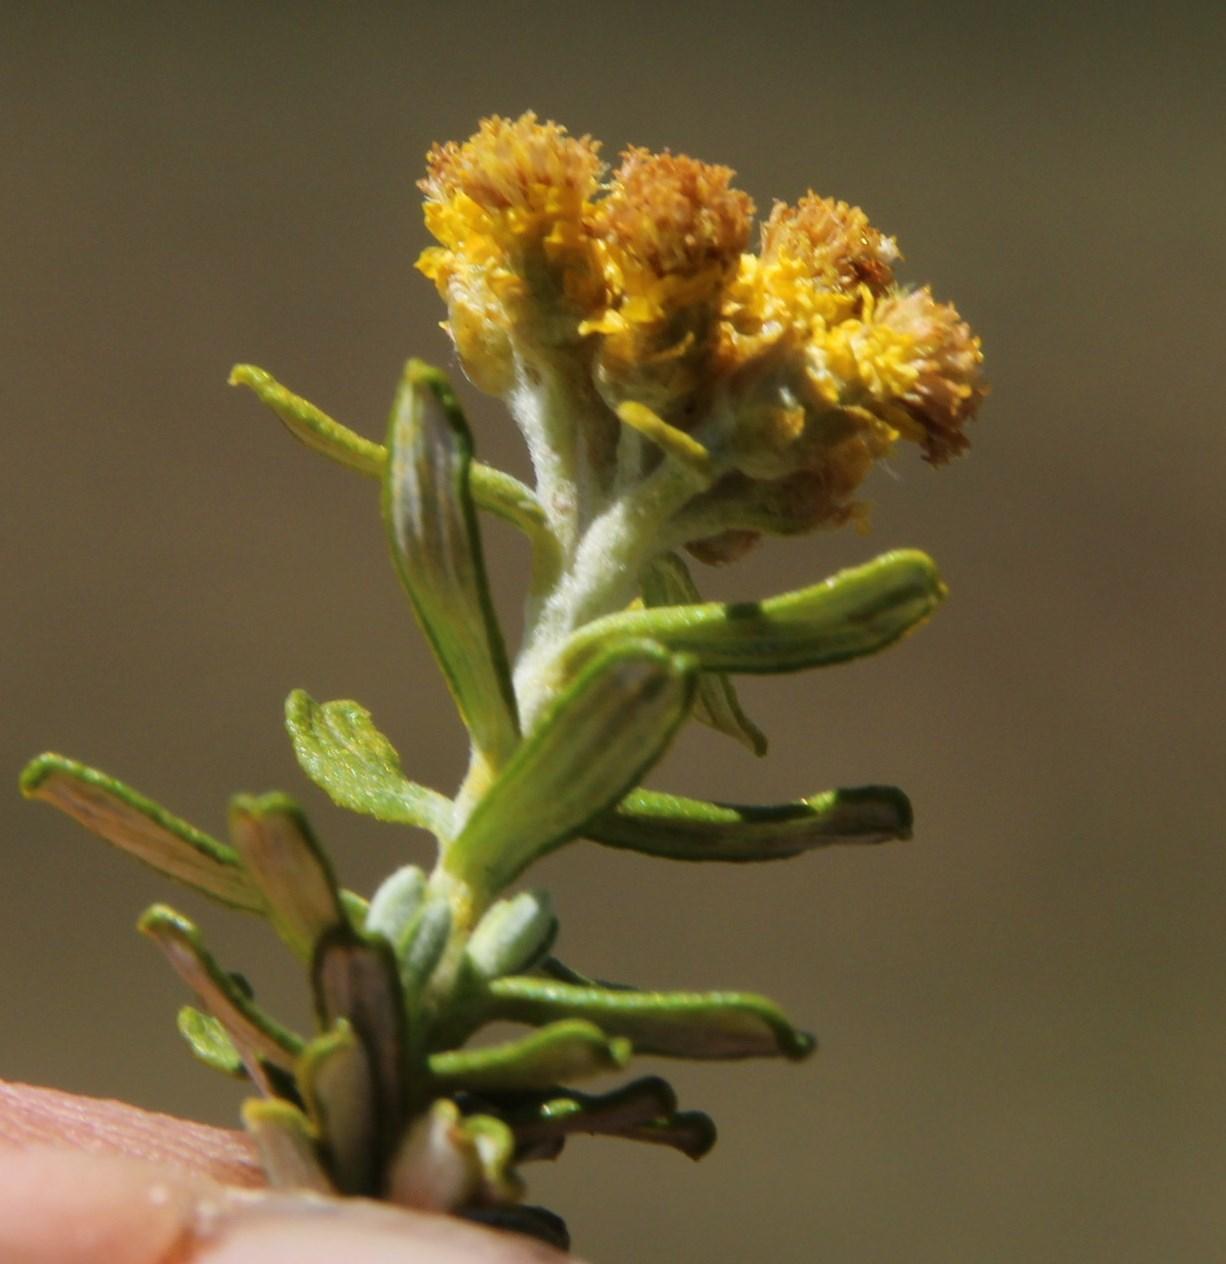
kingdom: Plantae
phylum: Tracheophyta
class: Magnoliopsida
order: Asterales
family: Asteraceae
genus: Helichrysum
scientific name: Helichrysum trilineatum
